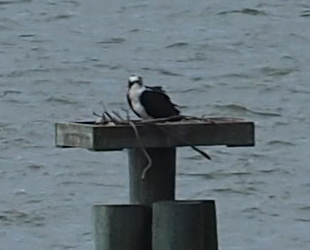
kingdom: Animalia
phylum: Chordata
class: Aves
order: Accipitriformes
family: Pandionidae
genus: Pandion
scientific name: Pandion haliaetus
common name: Osprey
